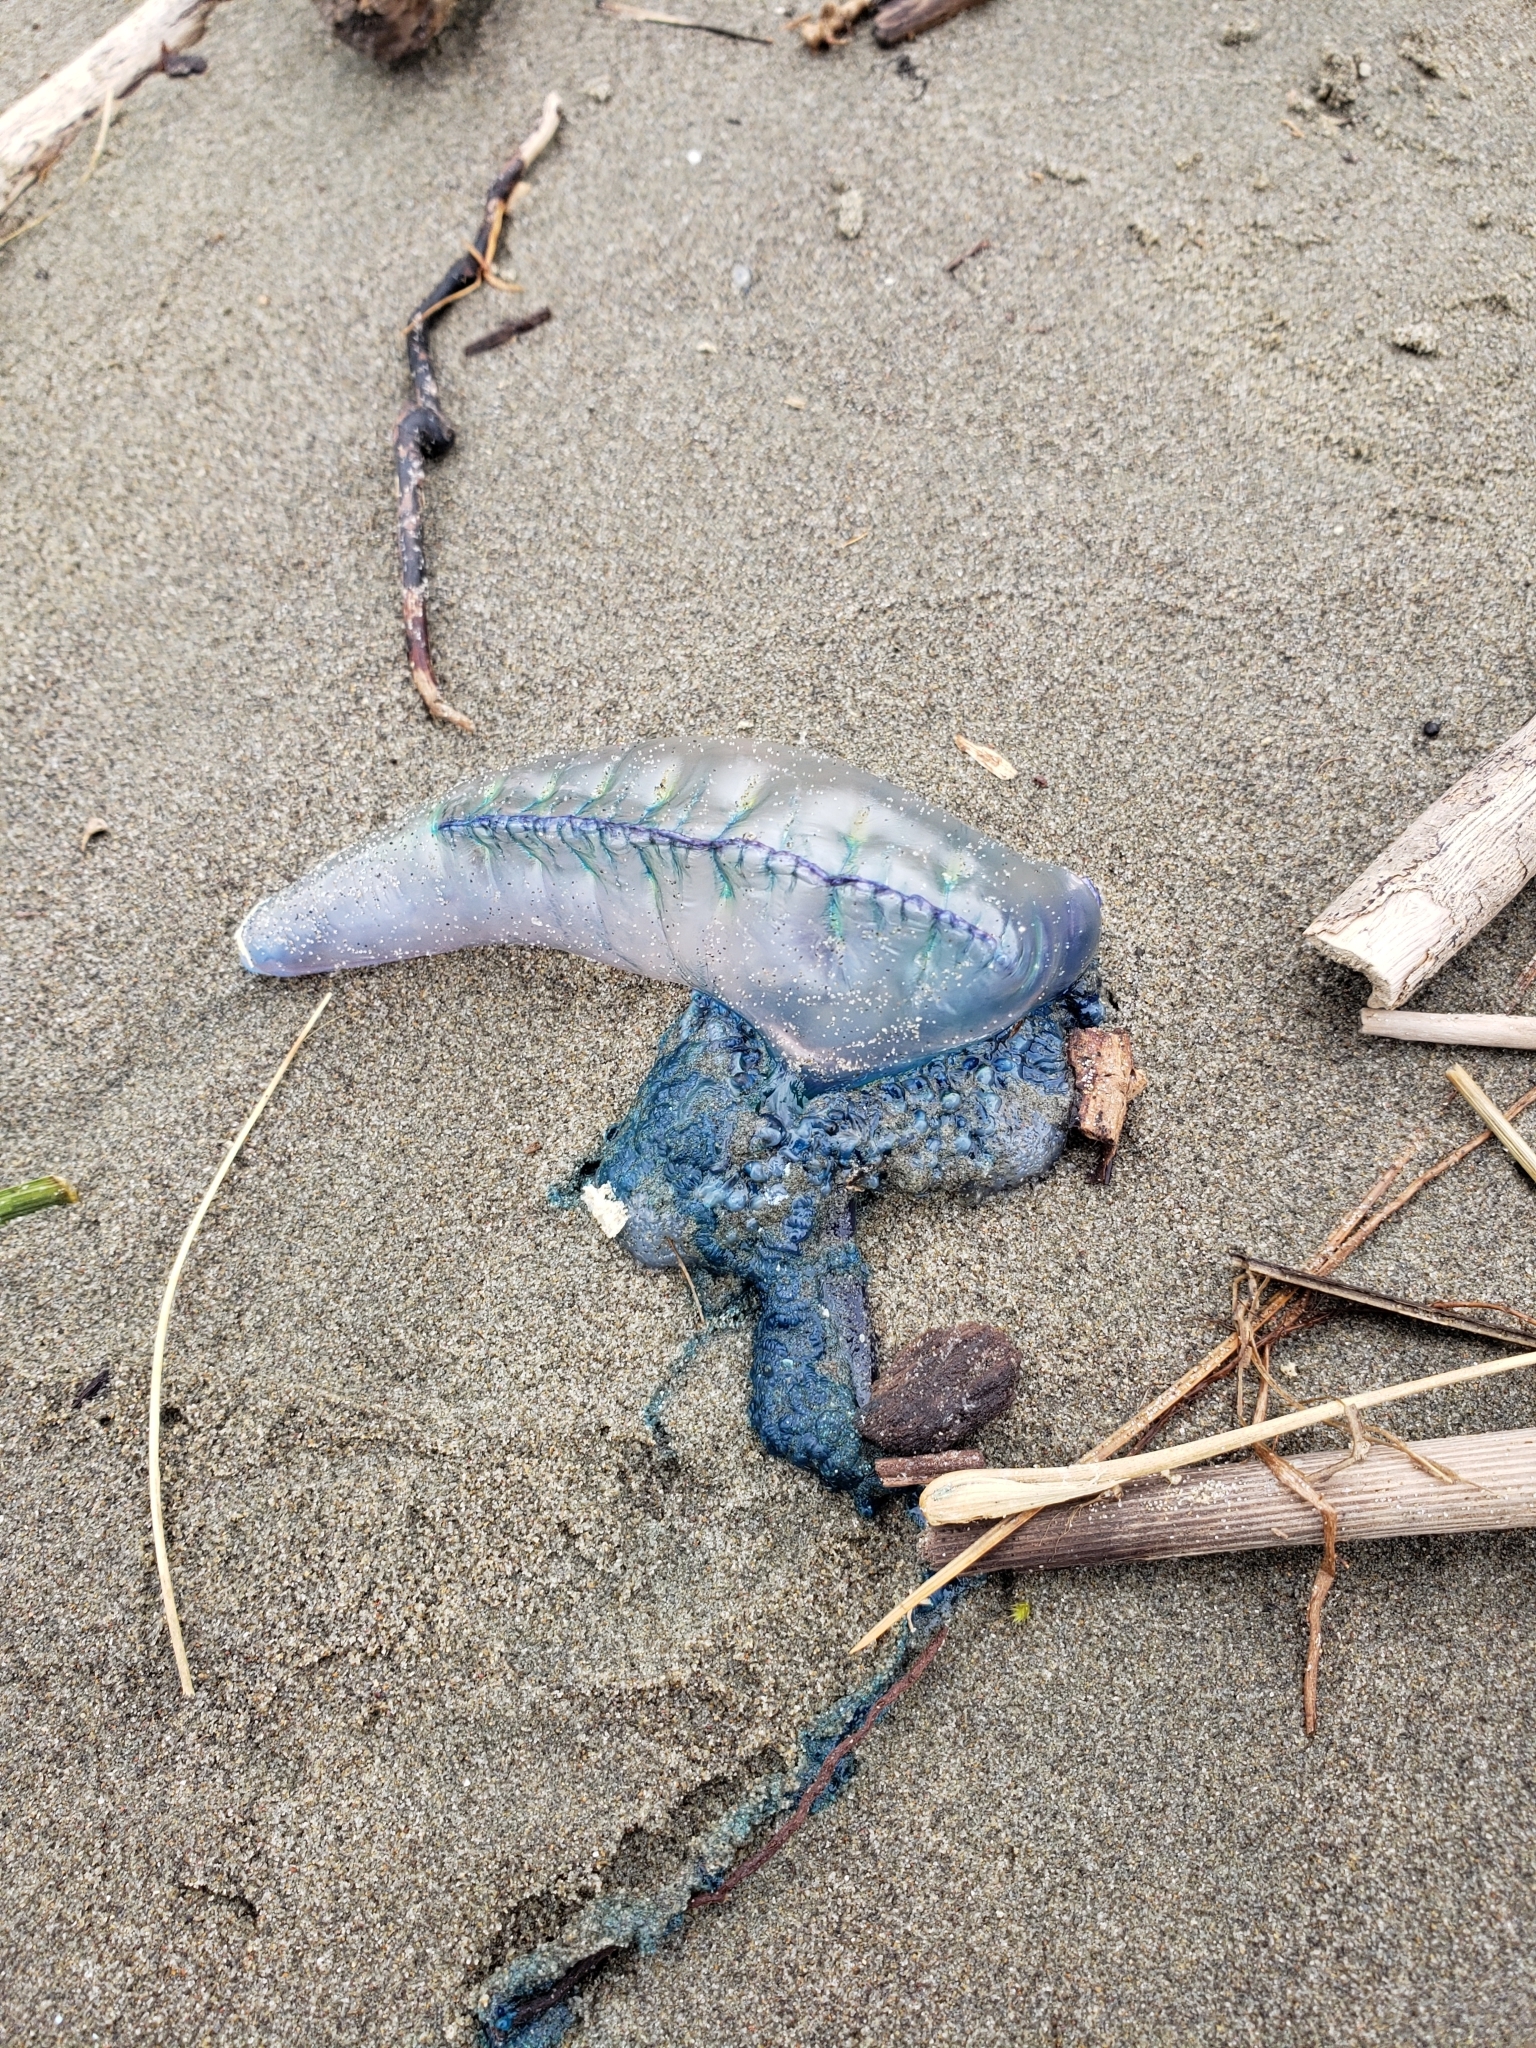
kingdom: Animalia
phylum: Cnidaria
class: Hydrozoa
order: Siphonophorae
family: Physaliidae
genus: Physalia
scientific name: Physalia physalis
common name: Portuguese man-of-war
